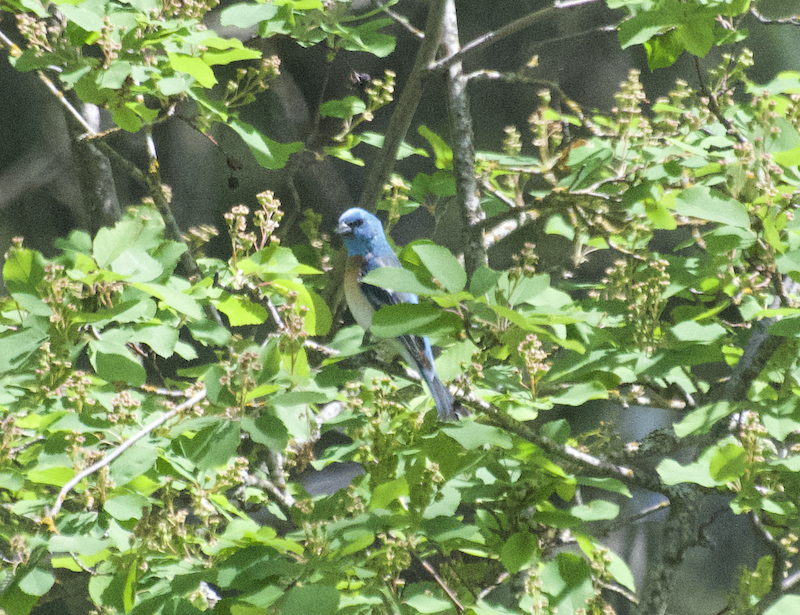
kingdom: Animalia
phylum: Chordata
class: Aves
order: Passeriformes
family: Cardinalidae
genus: Passerina
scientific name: Passerina amoena
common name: Lazuli bunting
